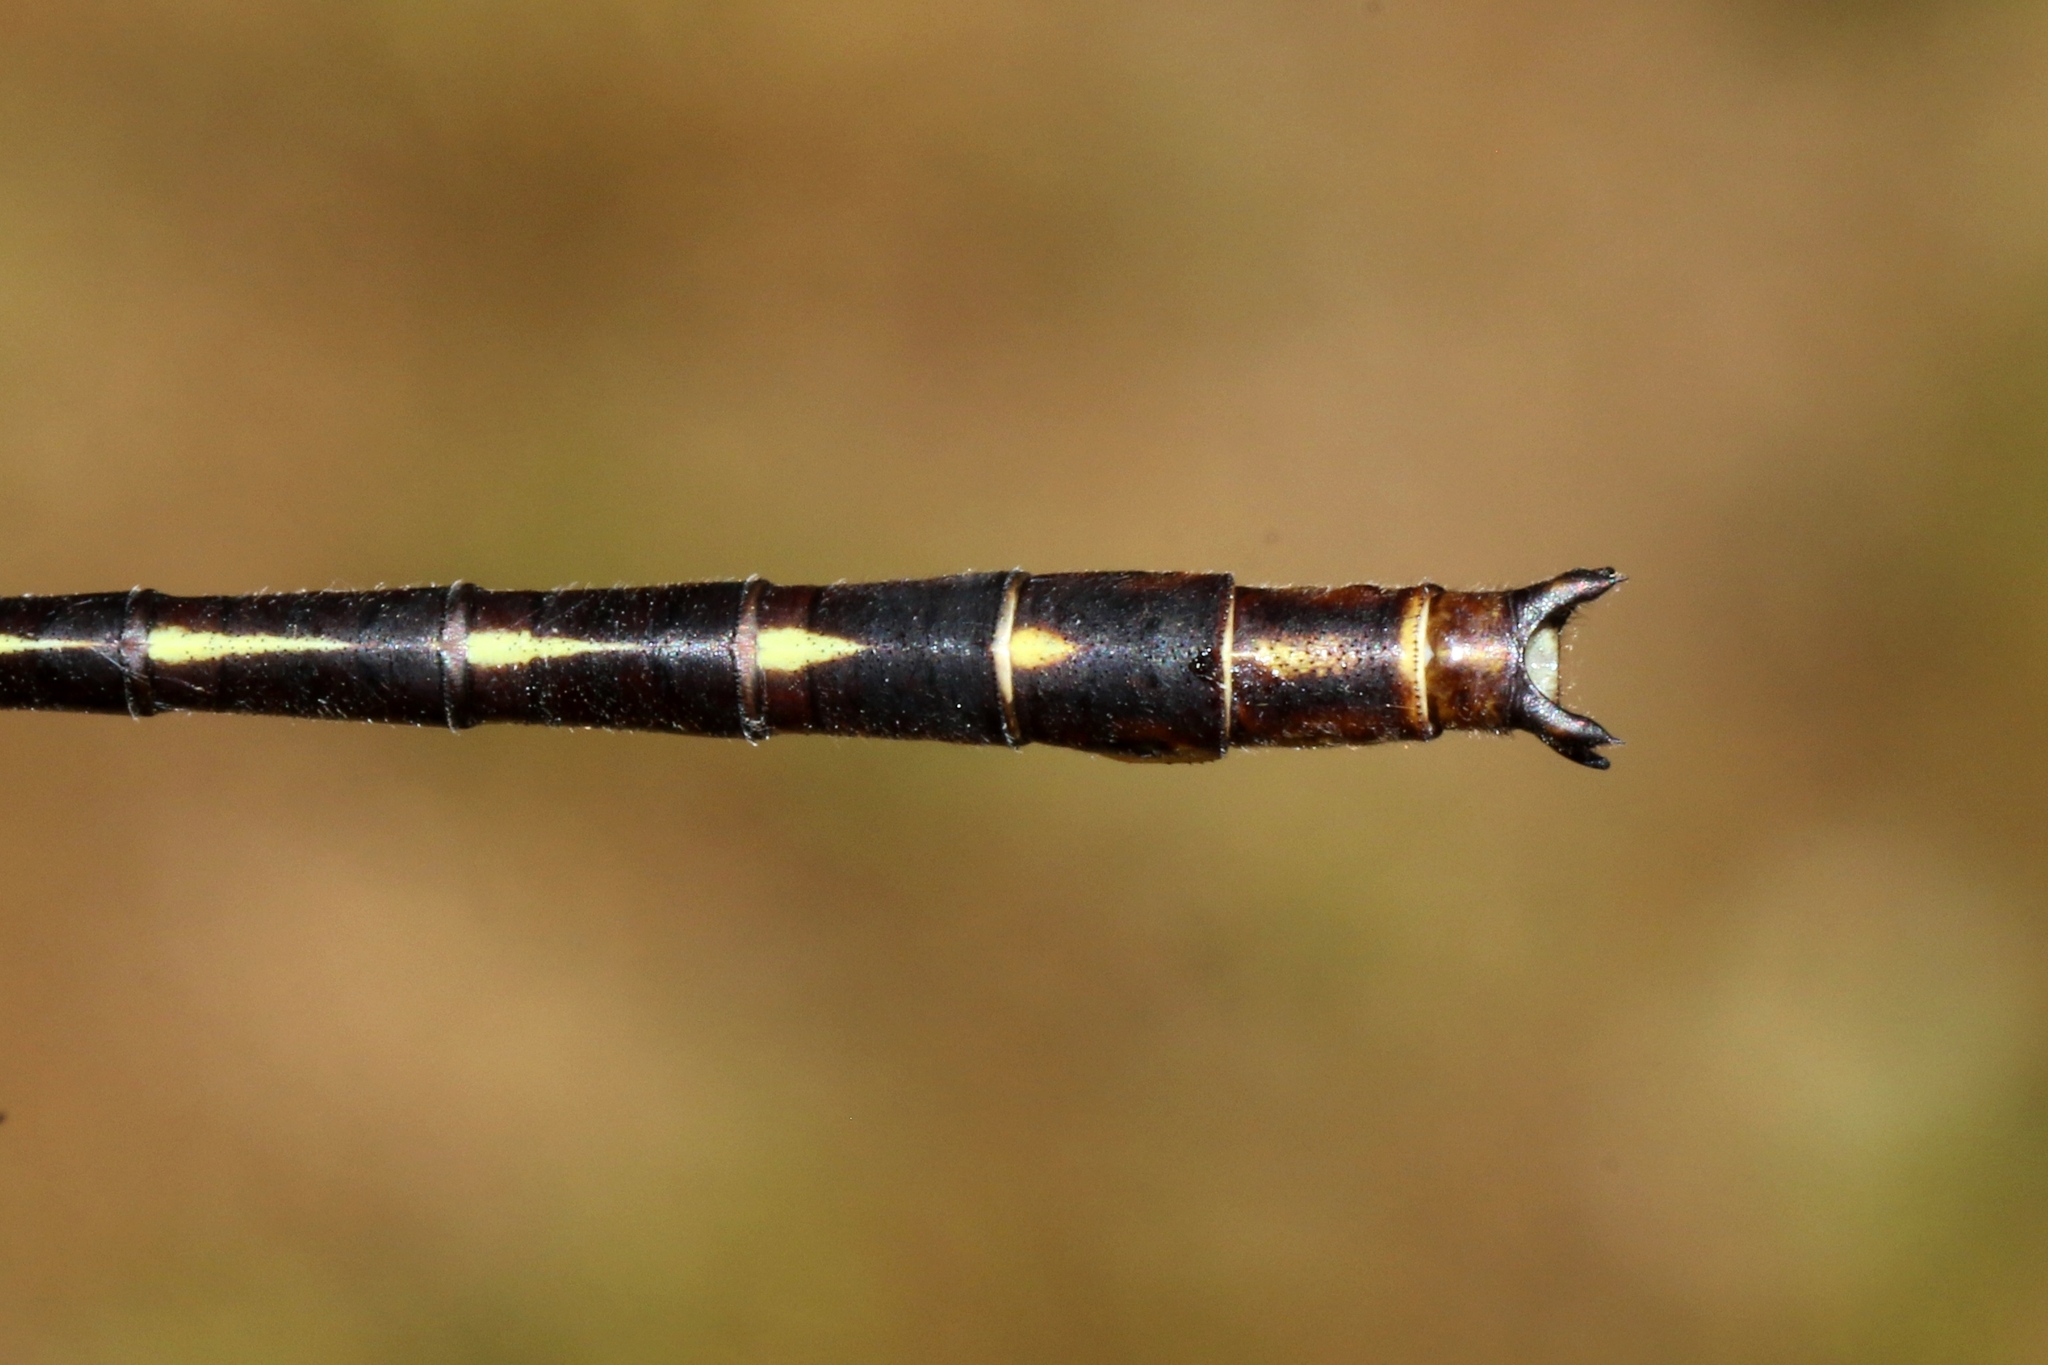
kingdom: Animalia
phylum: Arthropoda
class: Insecta
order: Odonata
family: Gomphidae
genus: Phanogomphus
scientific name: Phanogomphus lividus
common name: Ashy clubtail
